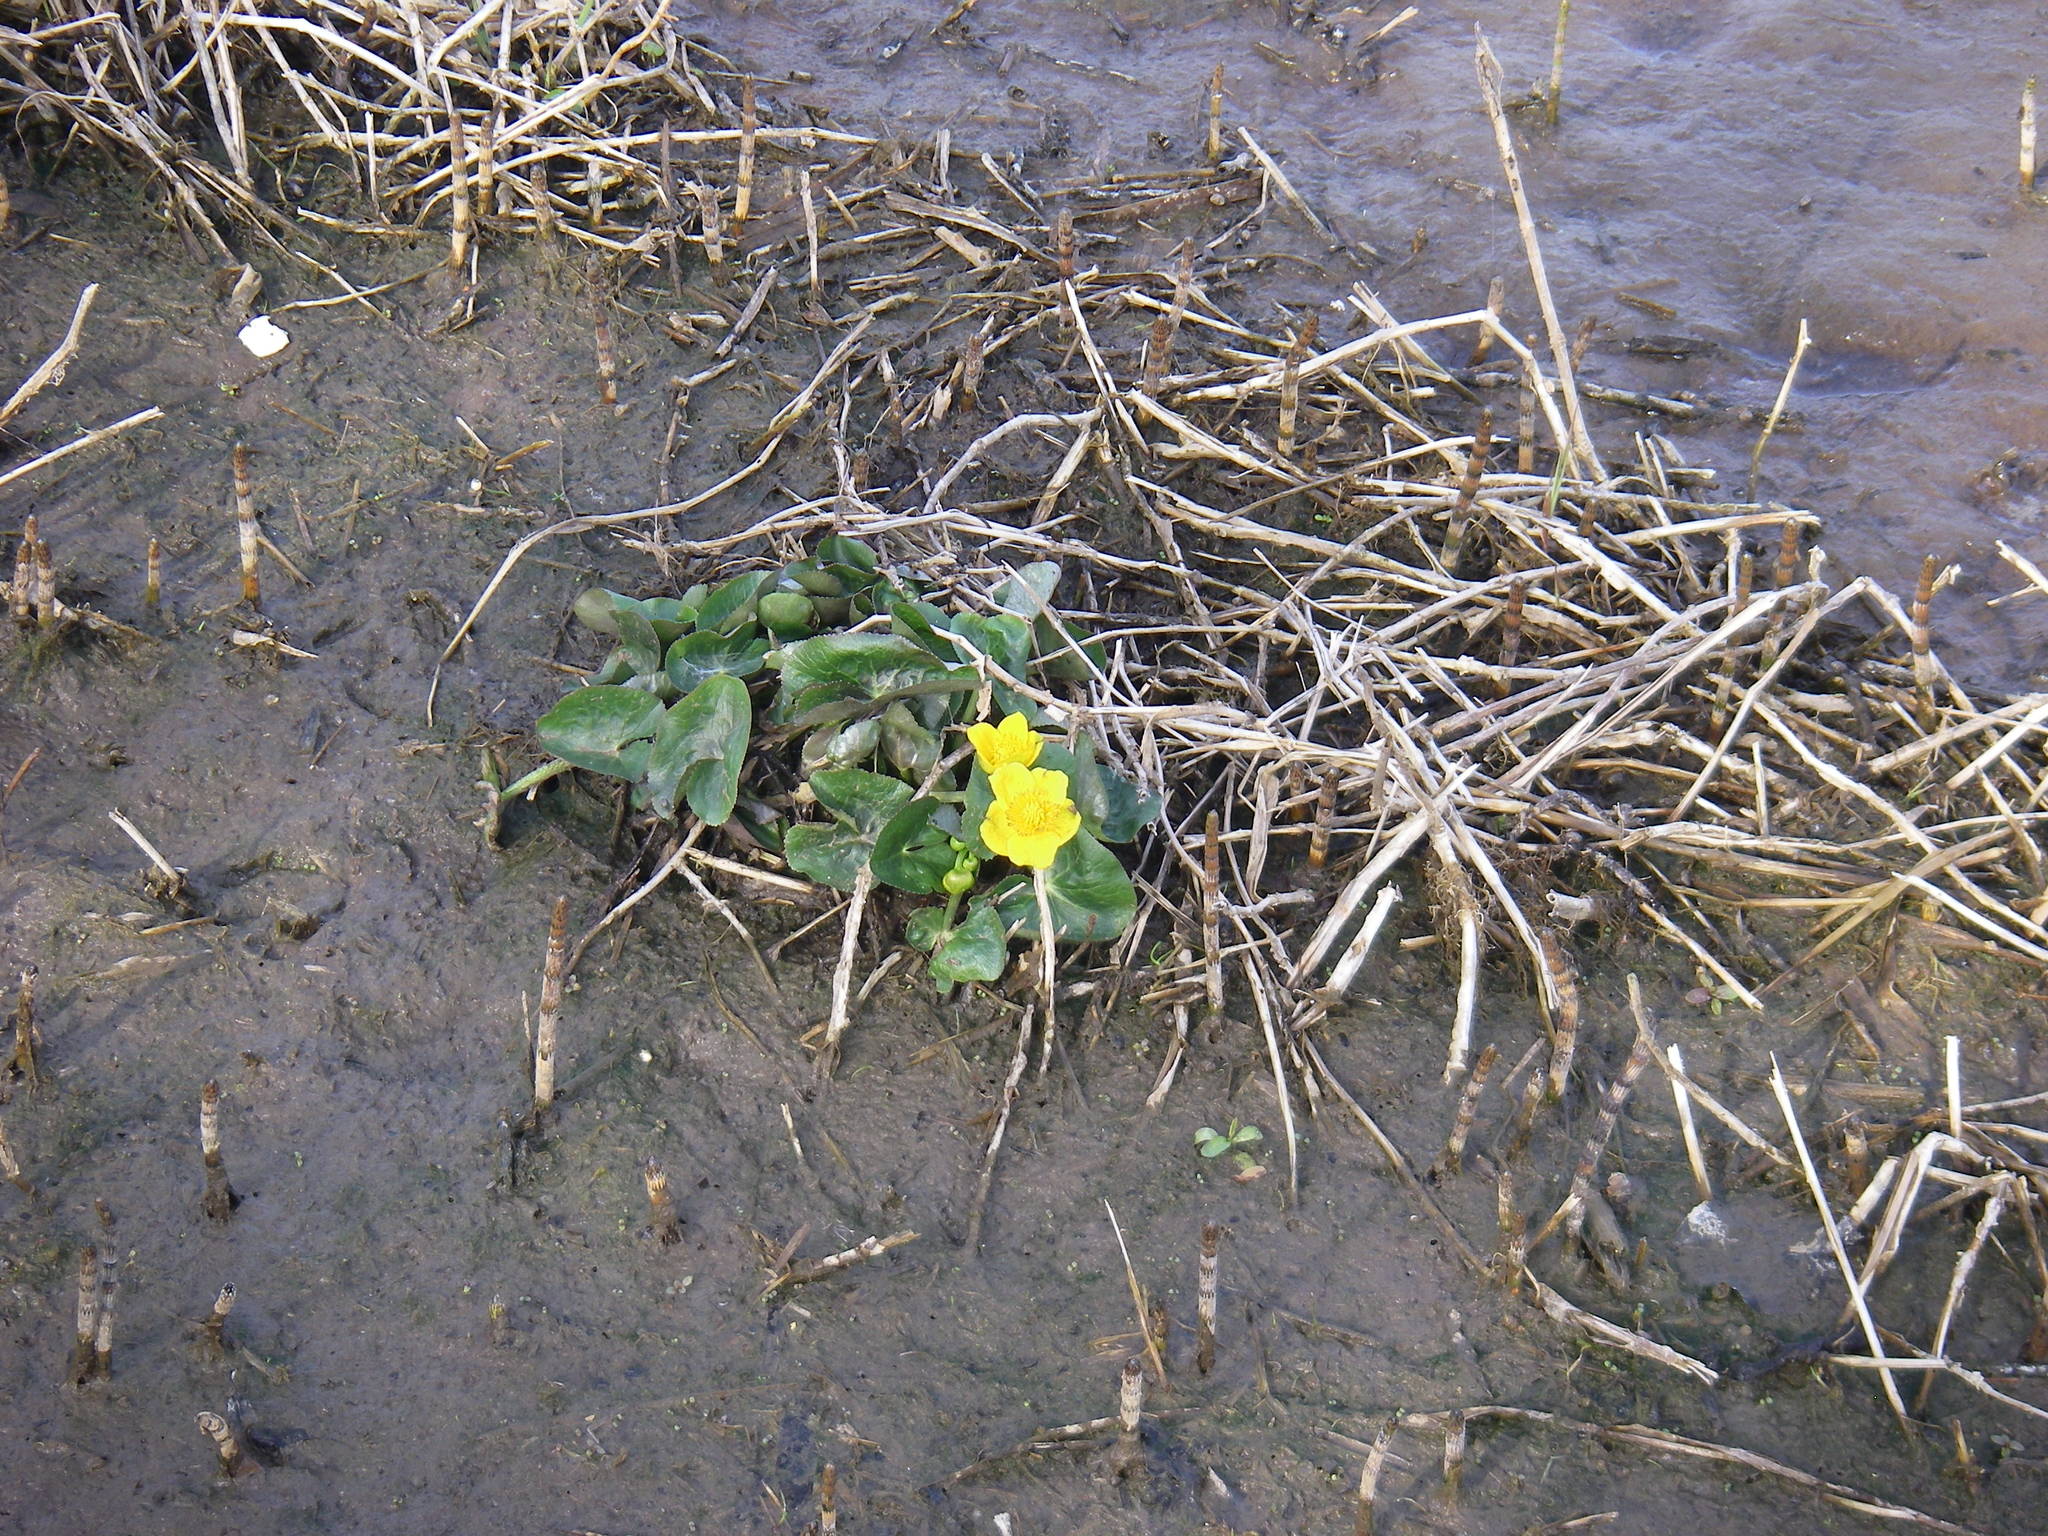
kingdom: Plantae
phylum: Tracheophyta
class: Magnoliopsida
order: Ranunculales
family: Ranunculaceae
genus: Caltha
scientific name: Caltha palustris
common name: Marsh marigold
